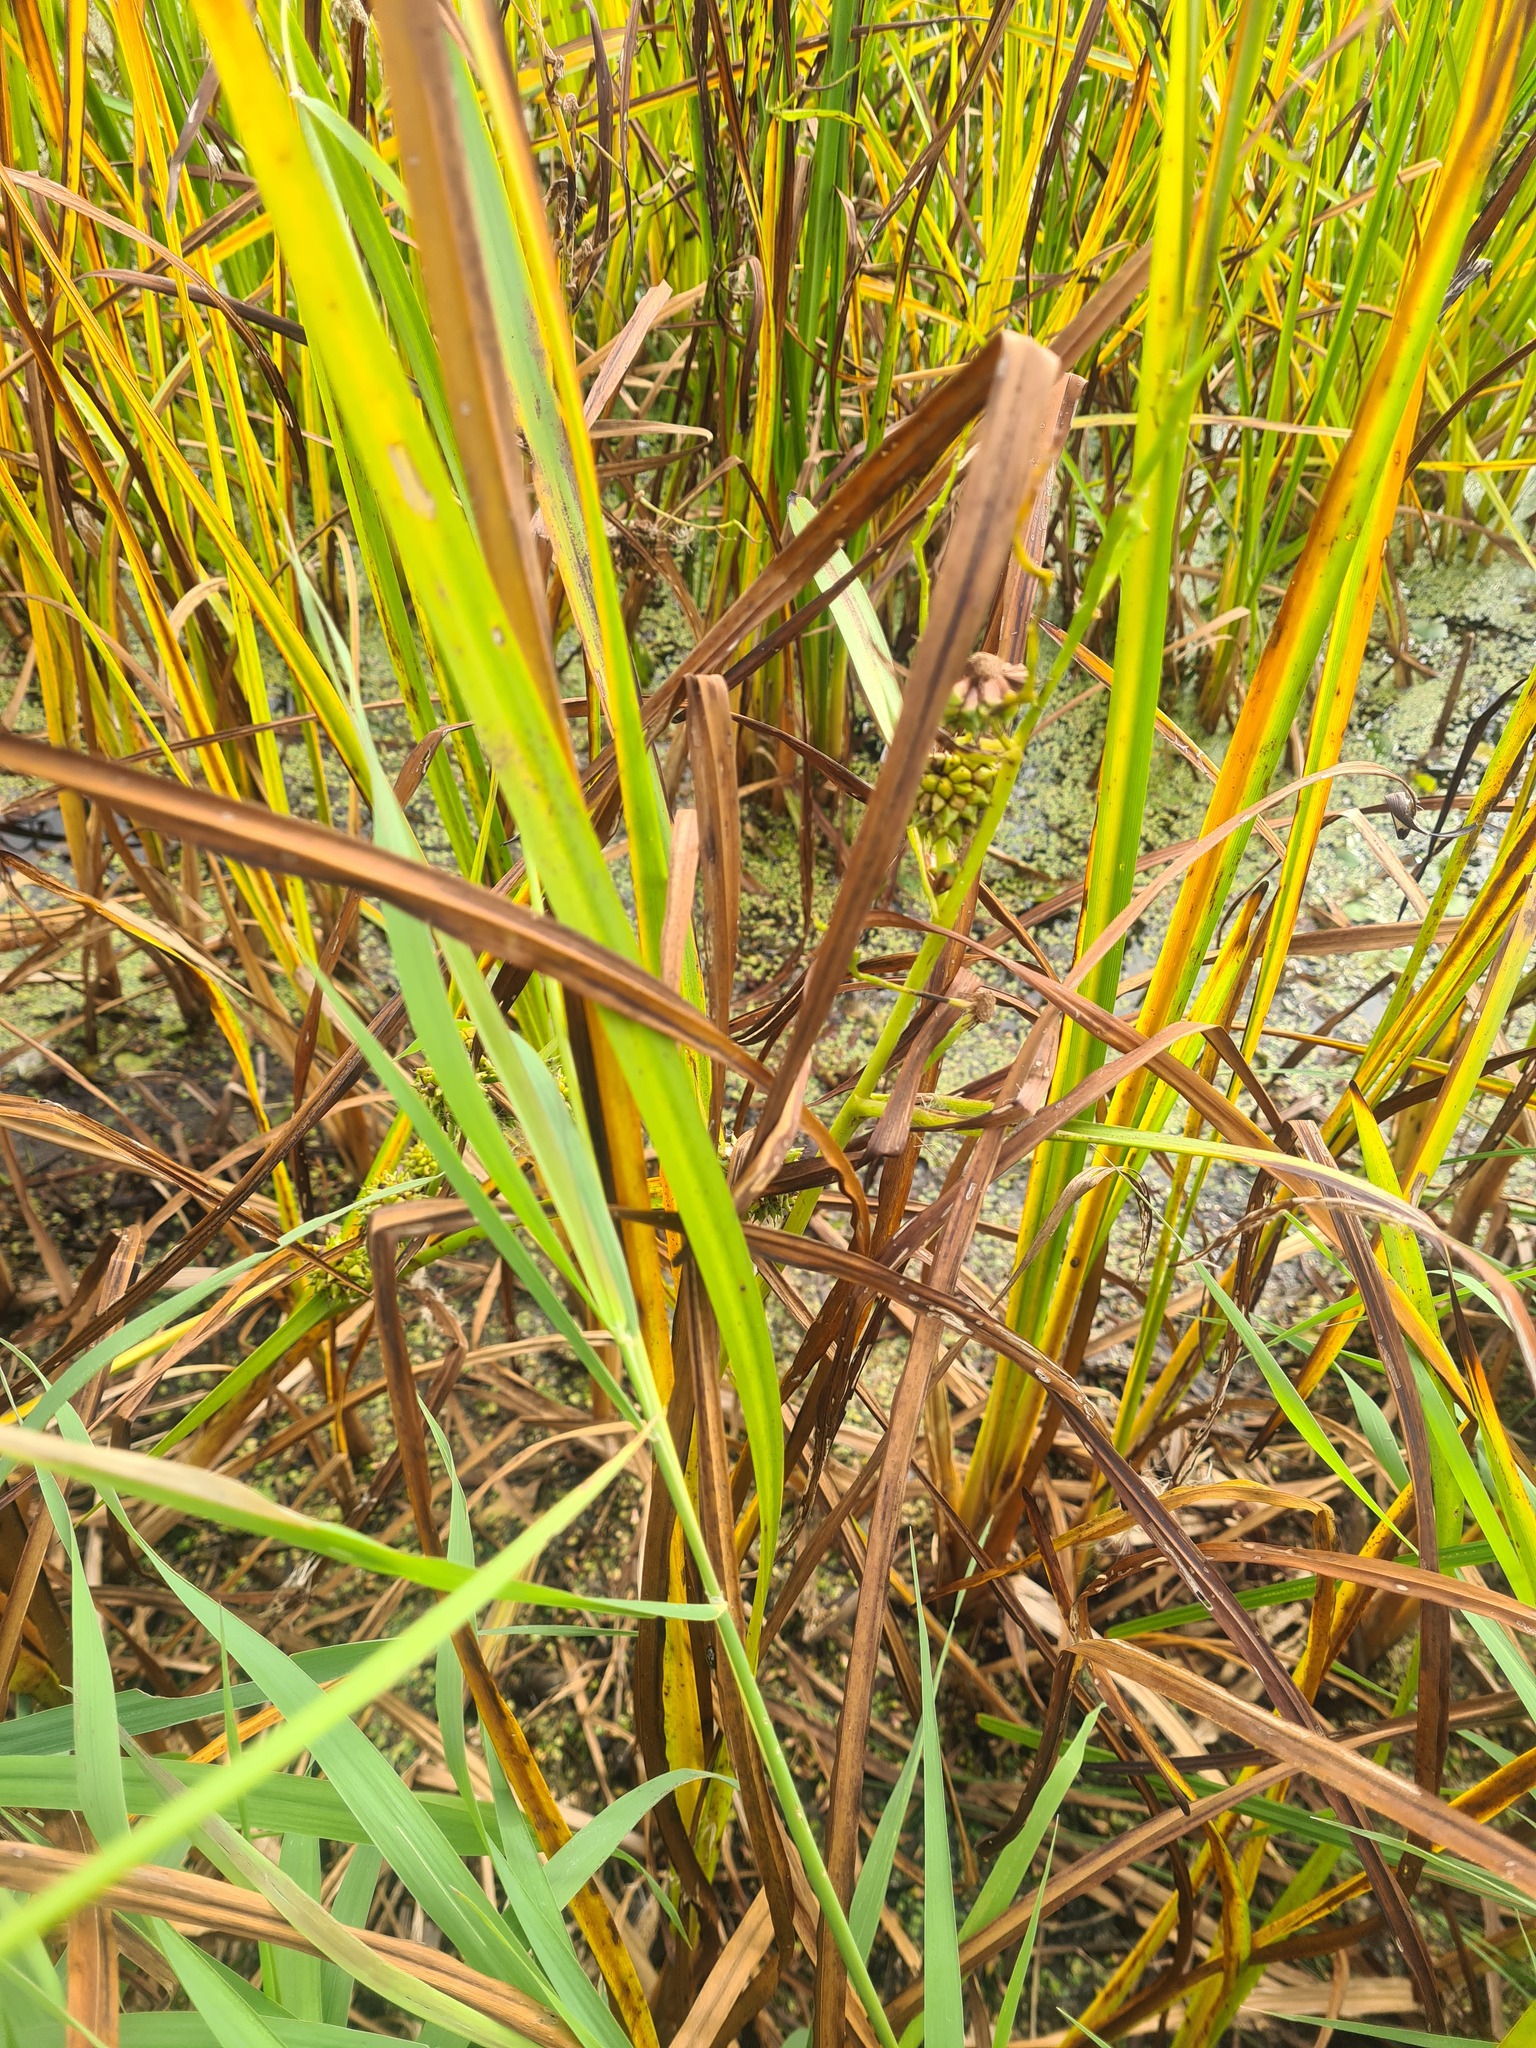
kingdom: Plantae
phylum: Tracheophyta
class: Liliopsida
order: Poales
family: Typhaceae
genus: Sparganium
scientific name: Sparganium erectum
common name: Branched bur-reed
